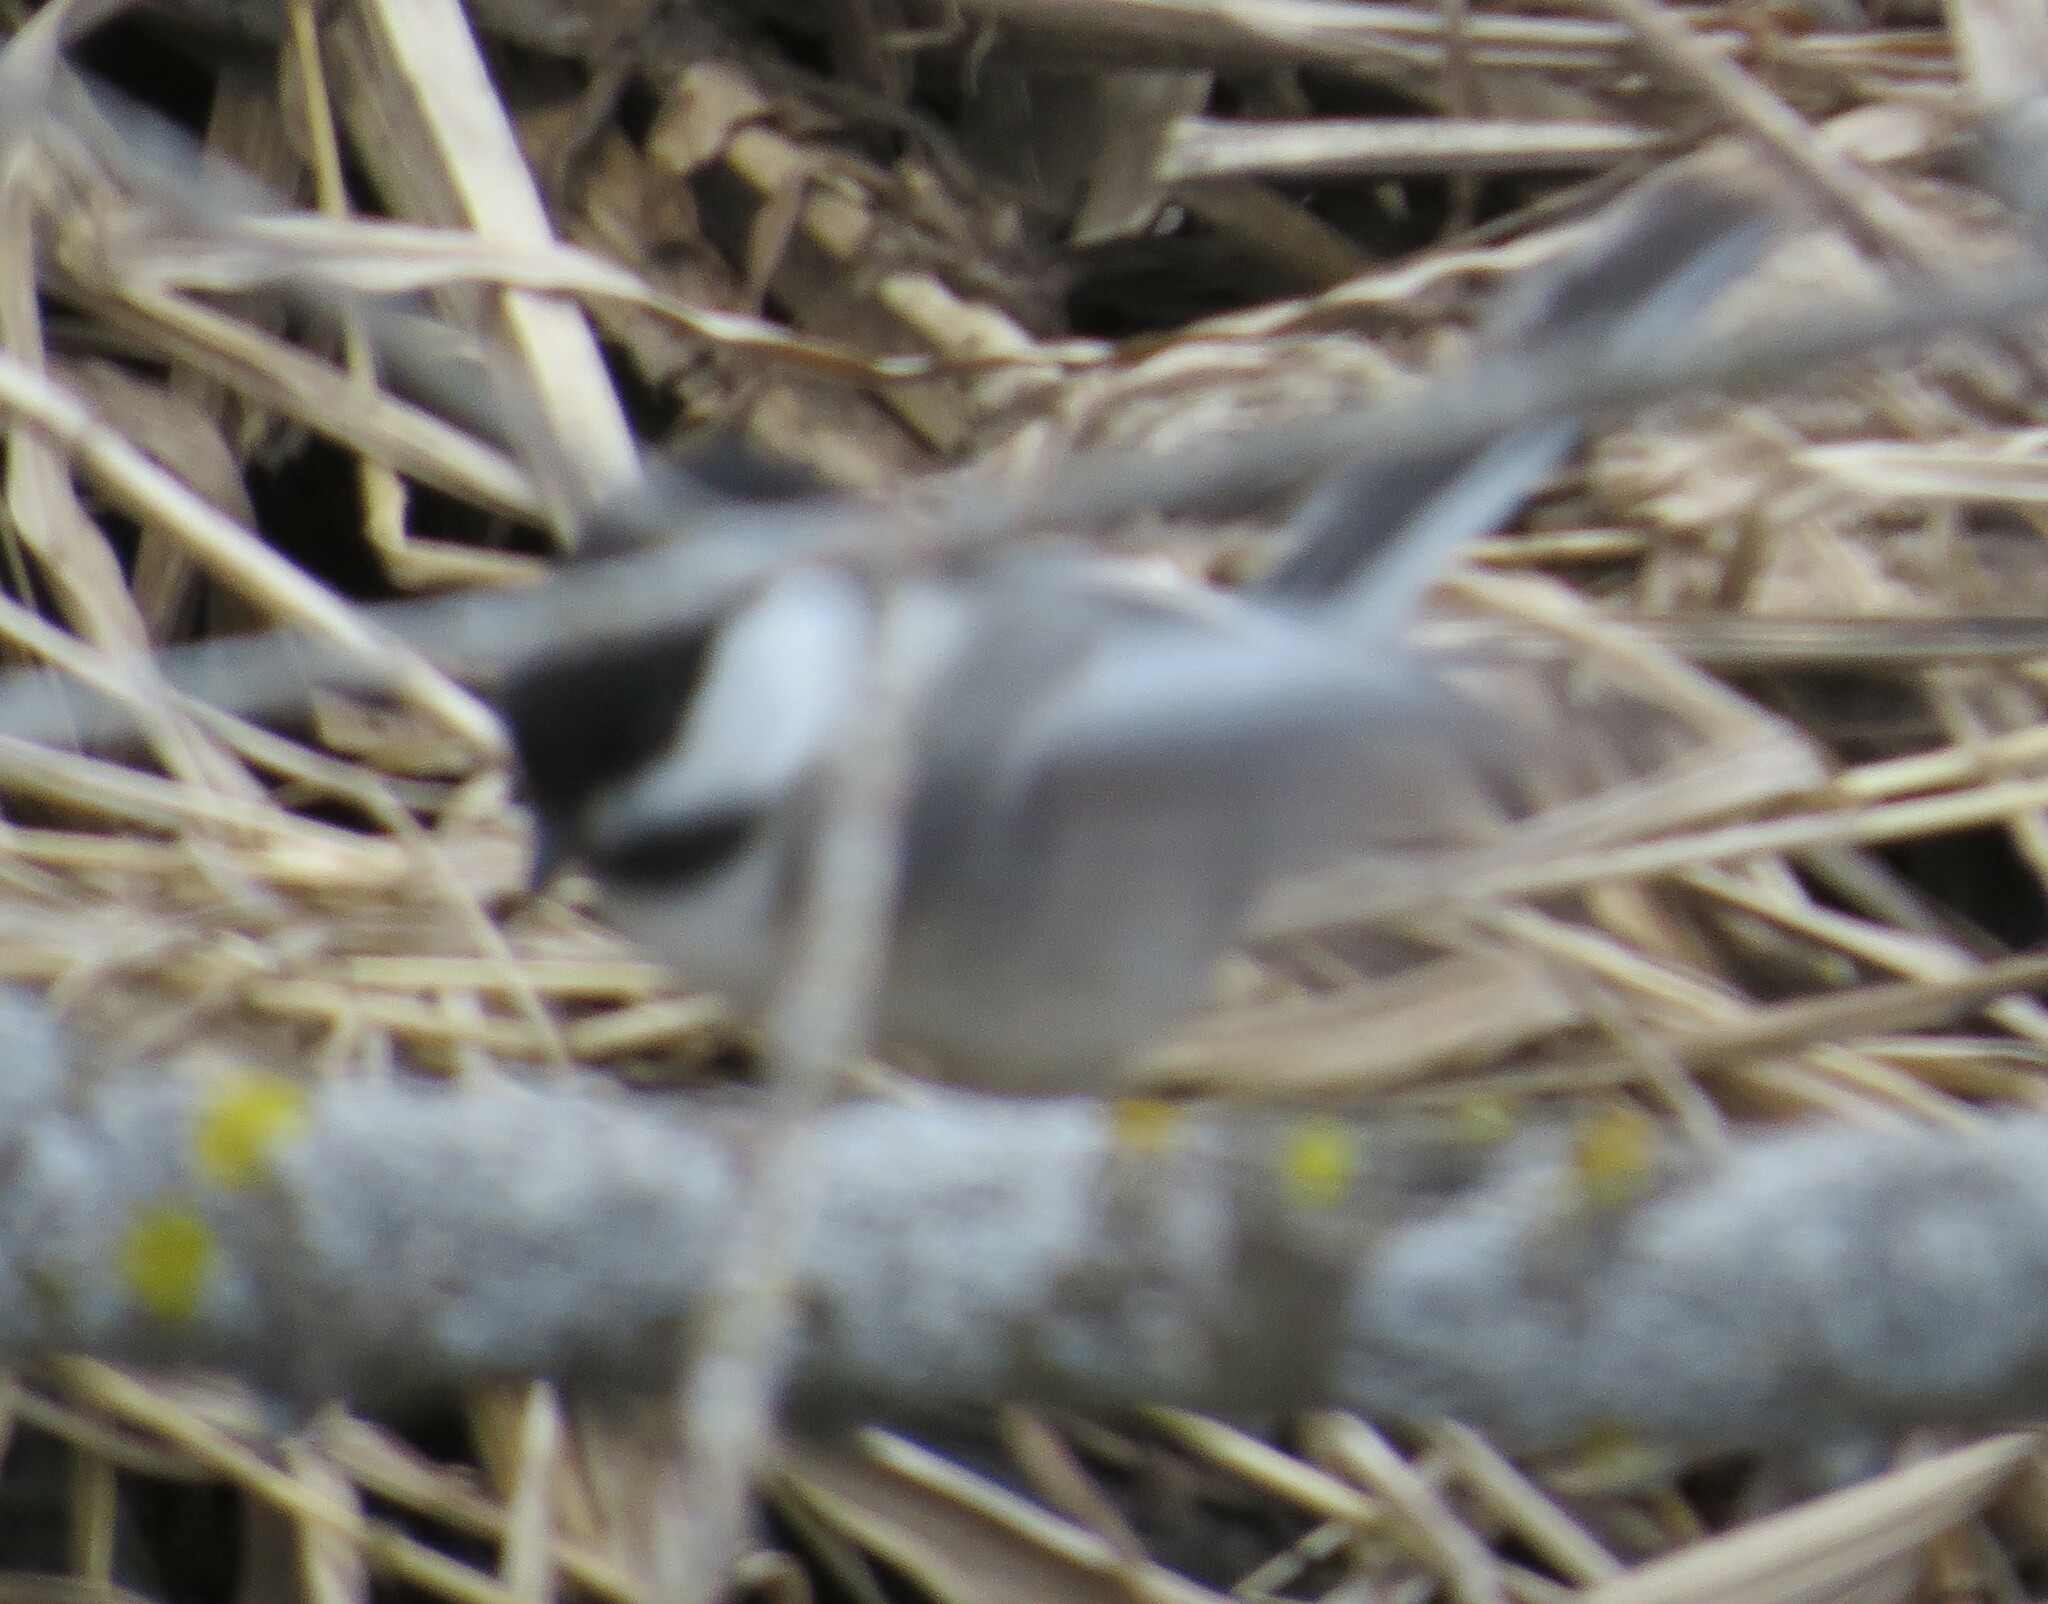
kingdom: Animalia
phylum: Chordata
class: Aves
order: Passeriformes
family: Paridae
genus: Poecile
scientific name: Poecile atricapillus
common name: Black-capped chickadee
